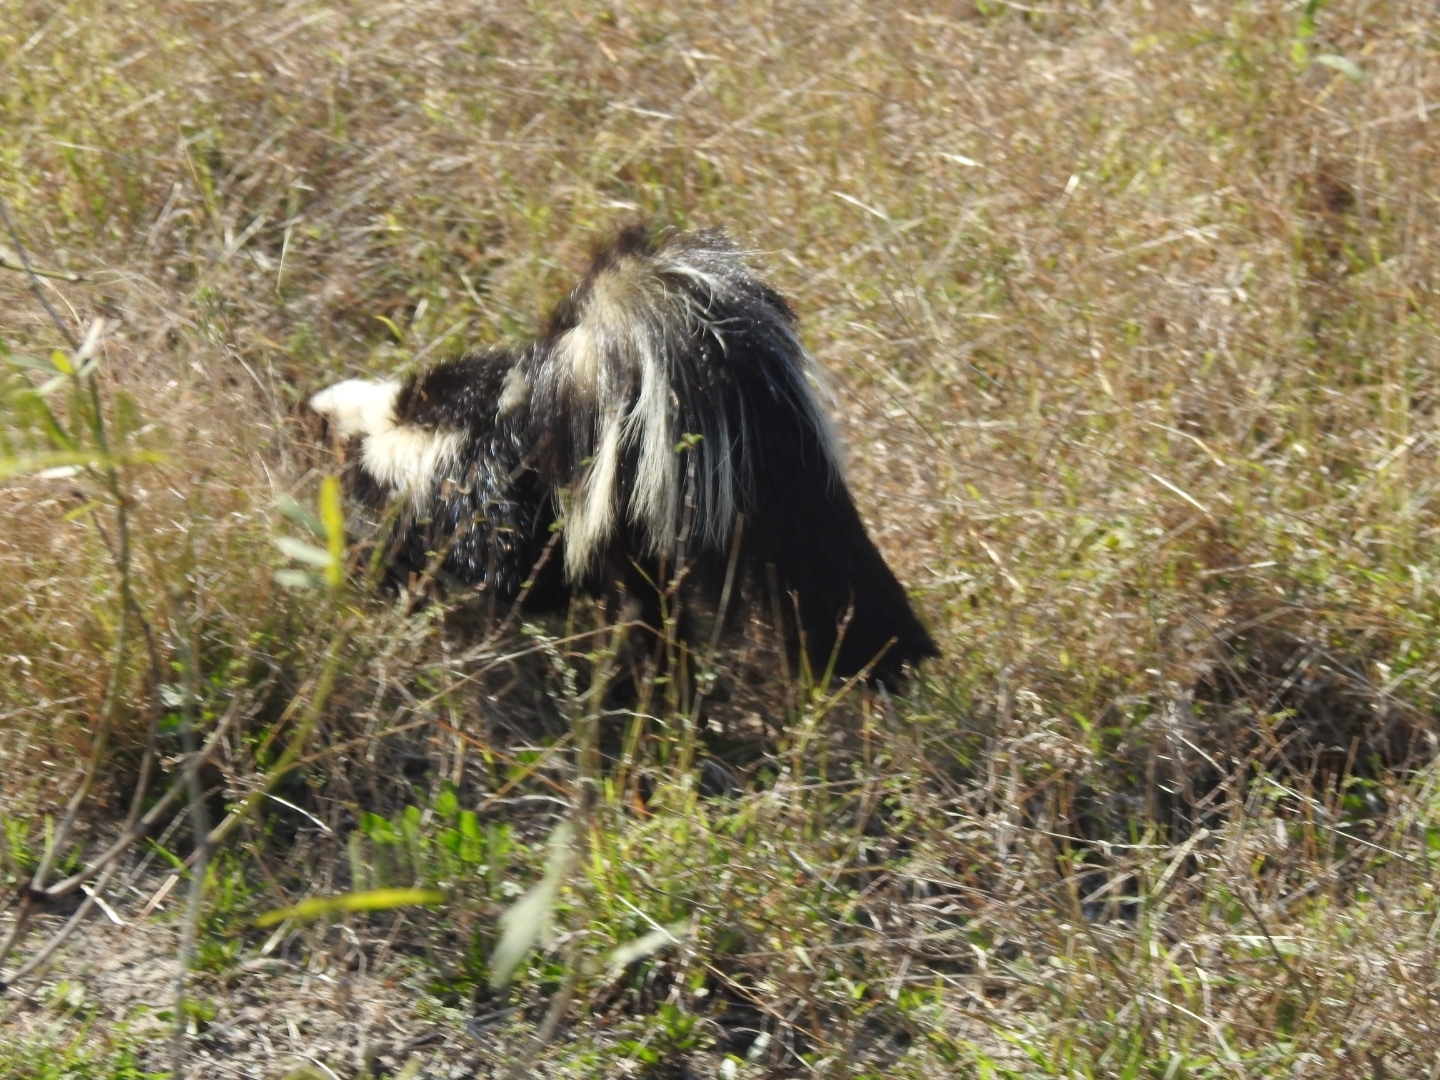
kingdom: Animalia
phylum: Chordata
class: Mammalia
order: Carnivora
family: Mephitidae
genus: Mephitis
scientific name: Mephitis mephitis
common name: Striped skunk
